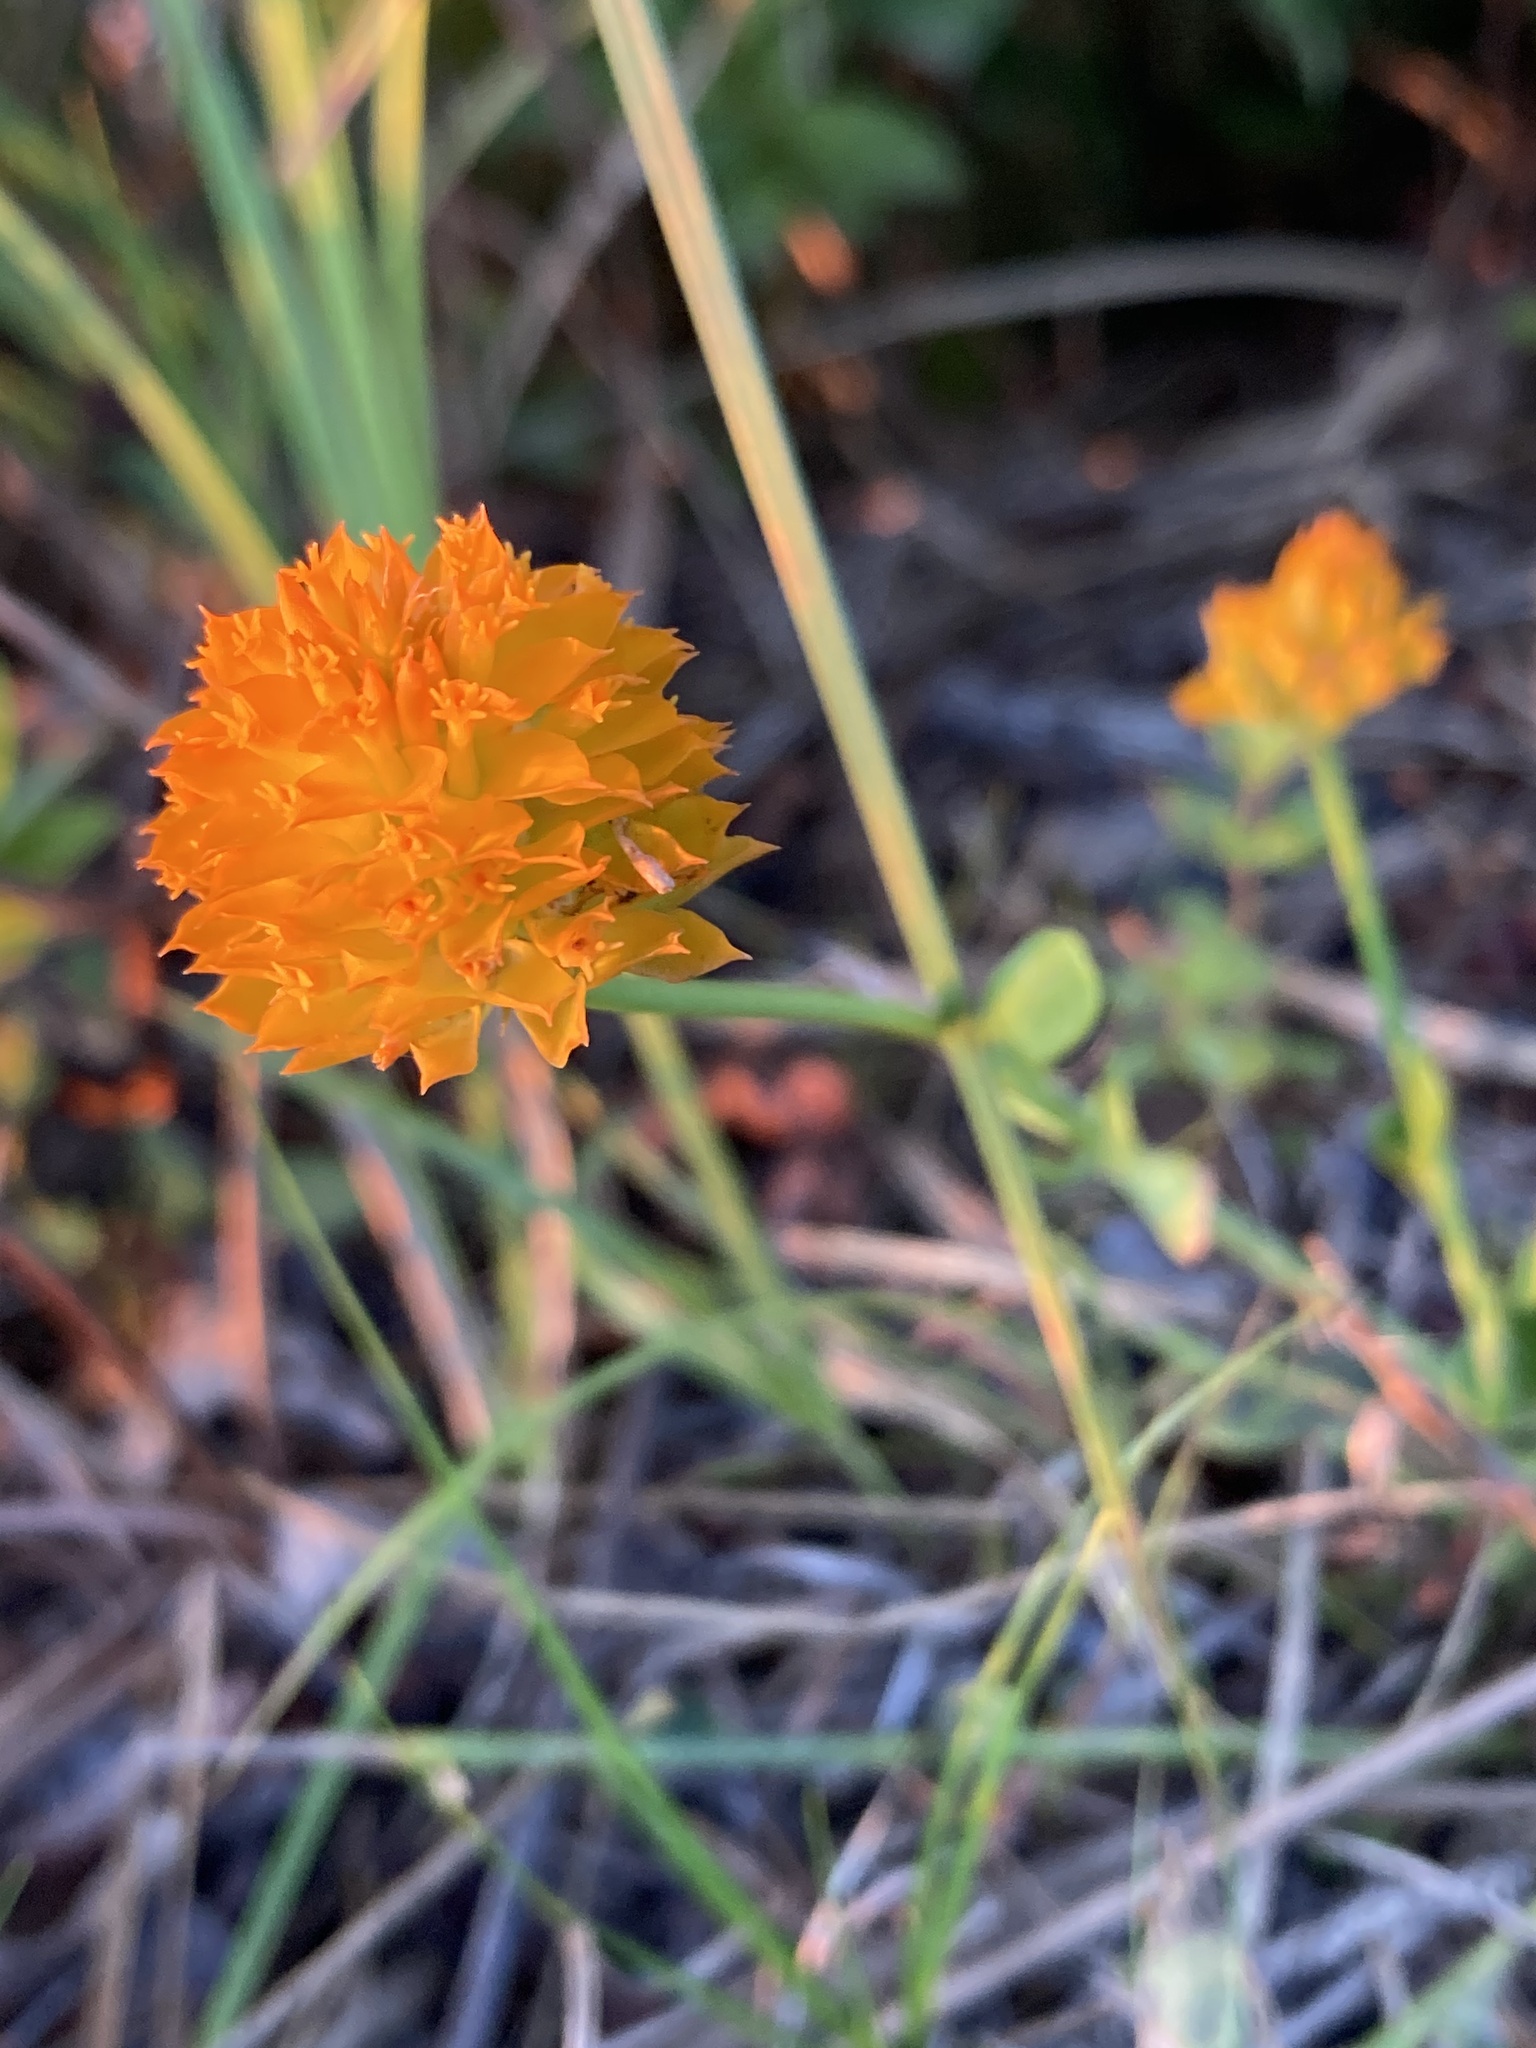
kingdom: Plantae
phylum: Tracheophyta
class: Magnoliopsida
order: Fabales
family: Polygalaceae
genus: Polygala
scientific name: Polygala lutea
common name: Orange milkwort
